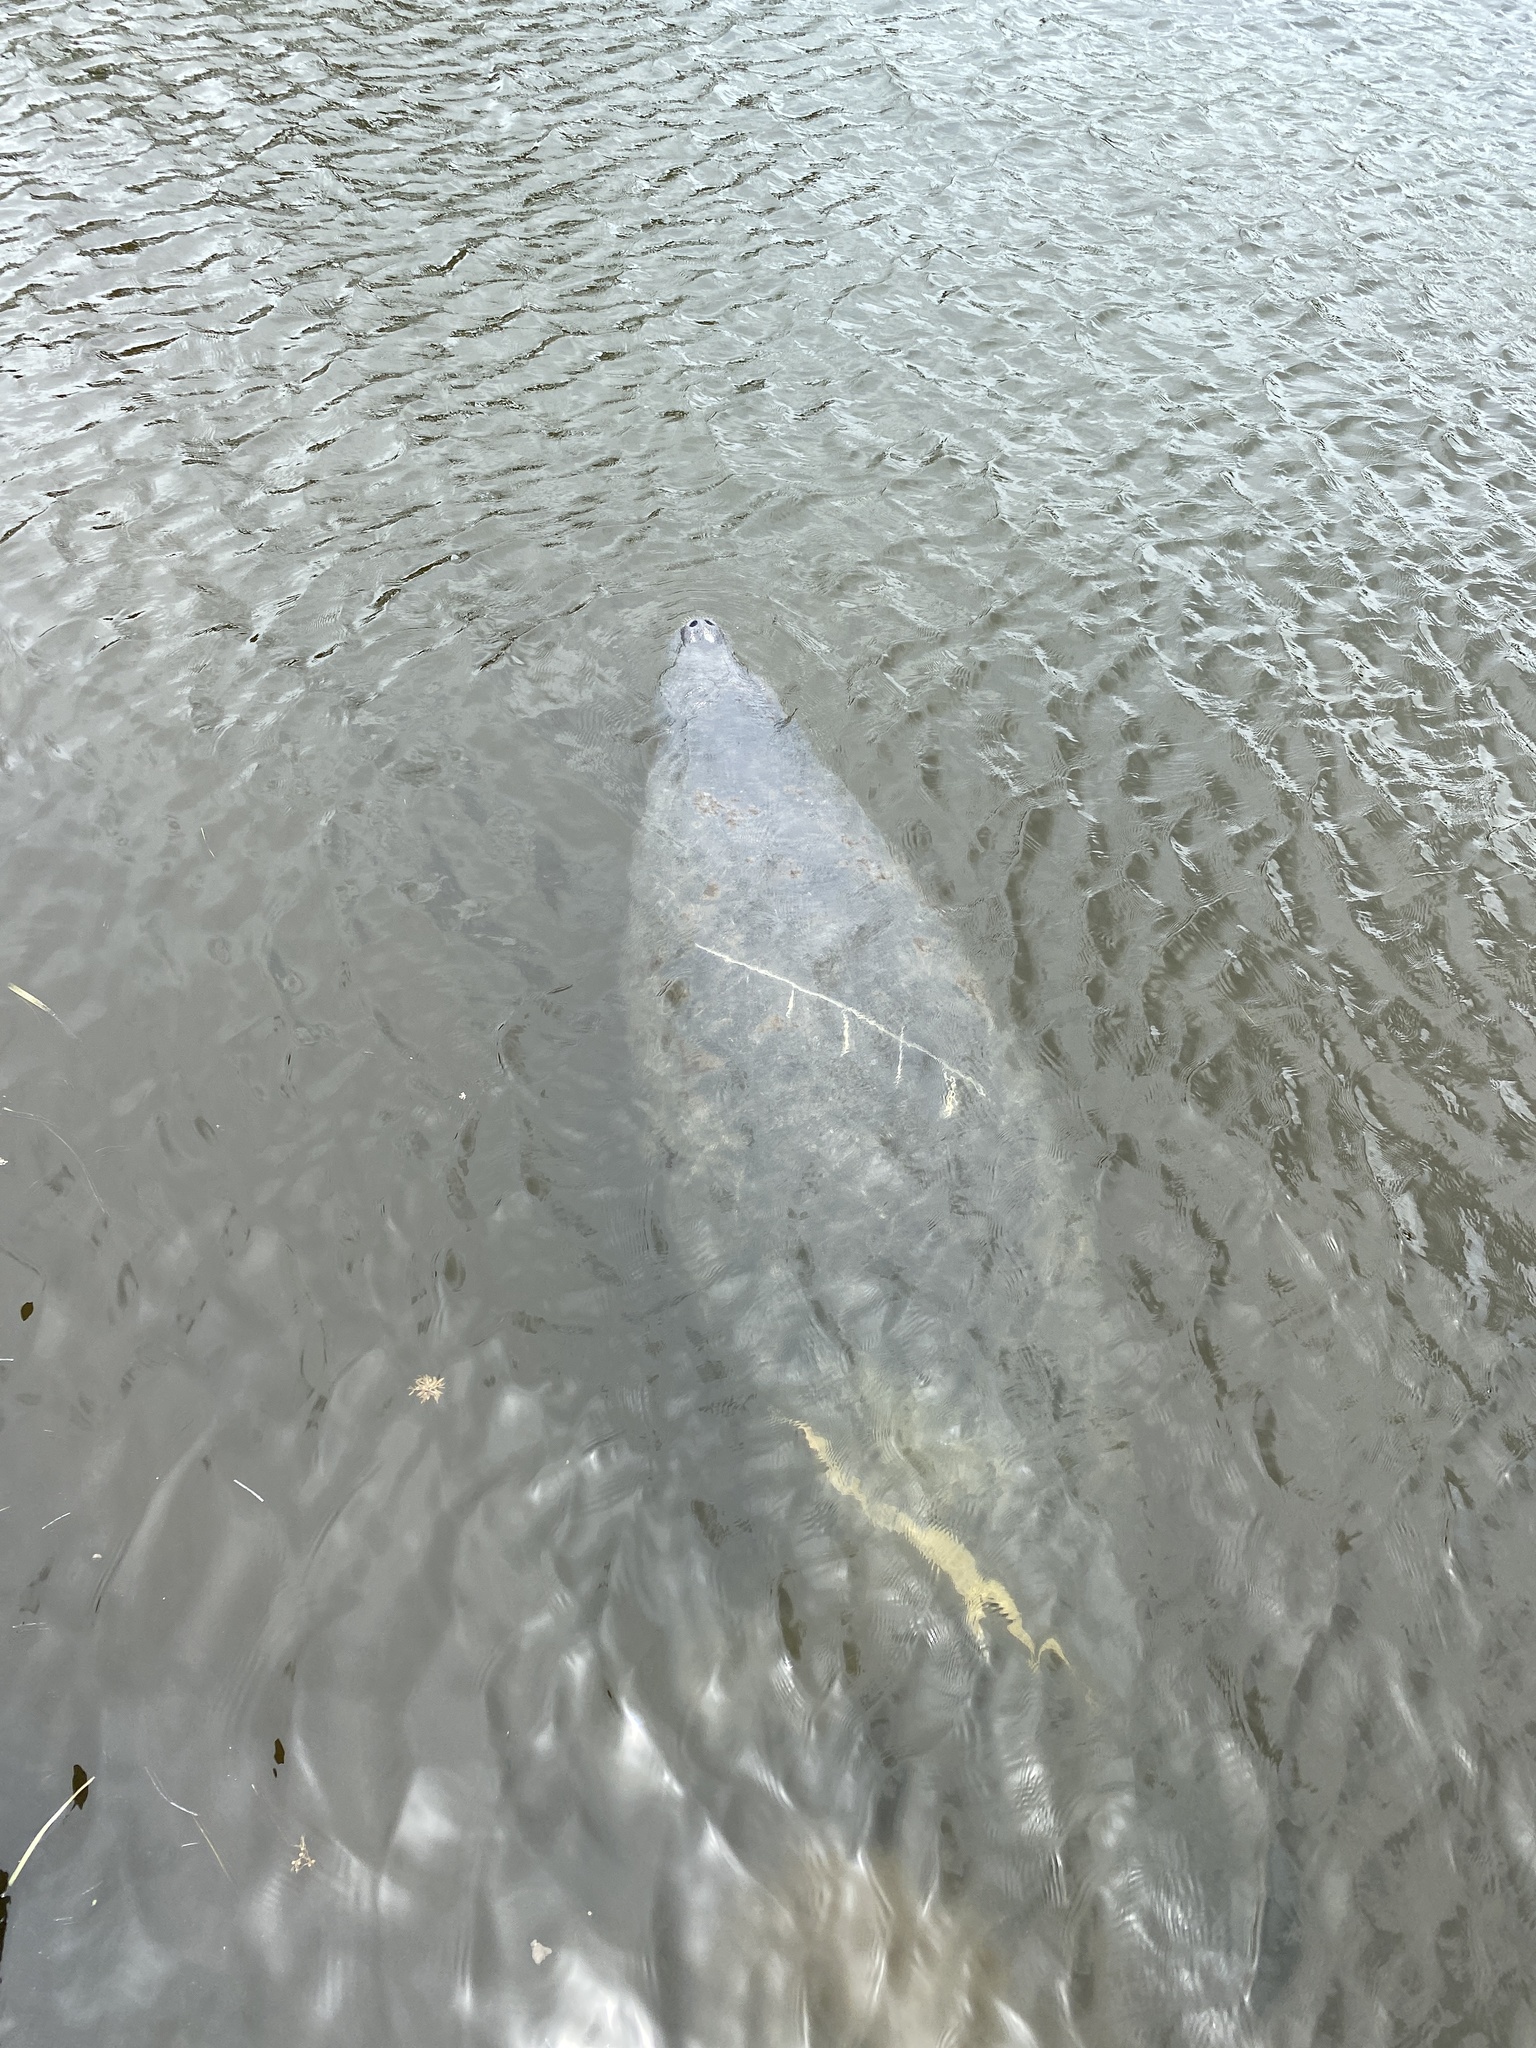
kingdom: Animalia
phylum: Chordata
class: Mammalia
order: Sirenia
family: Trichechidae
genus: Trichechus
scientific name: Trichechus manatus
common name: West indian manatee
